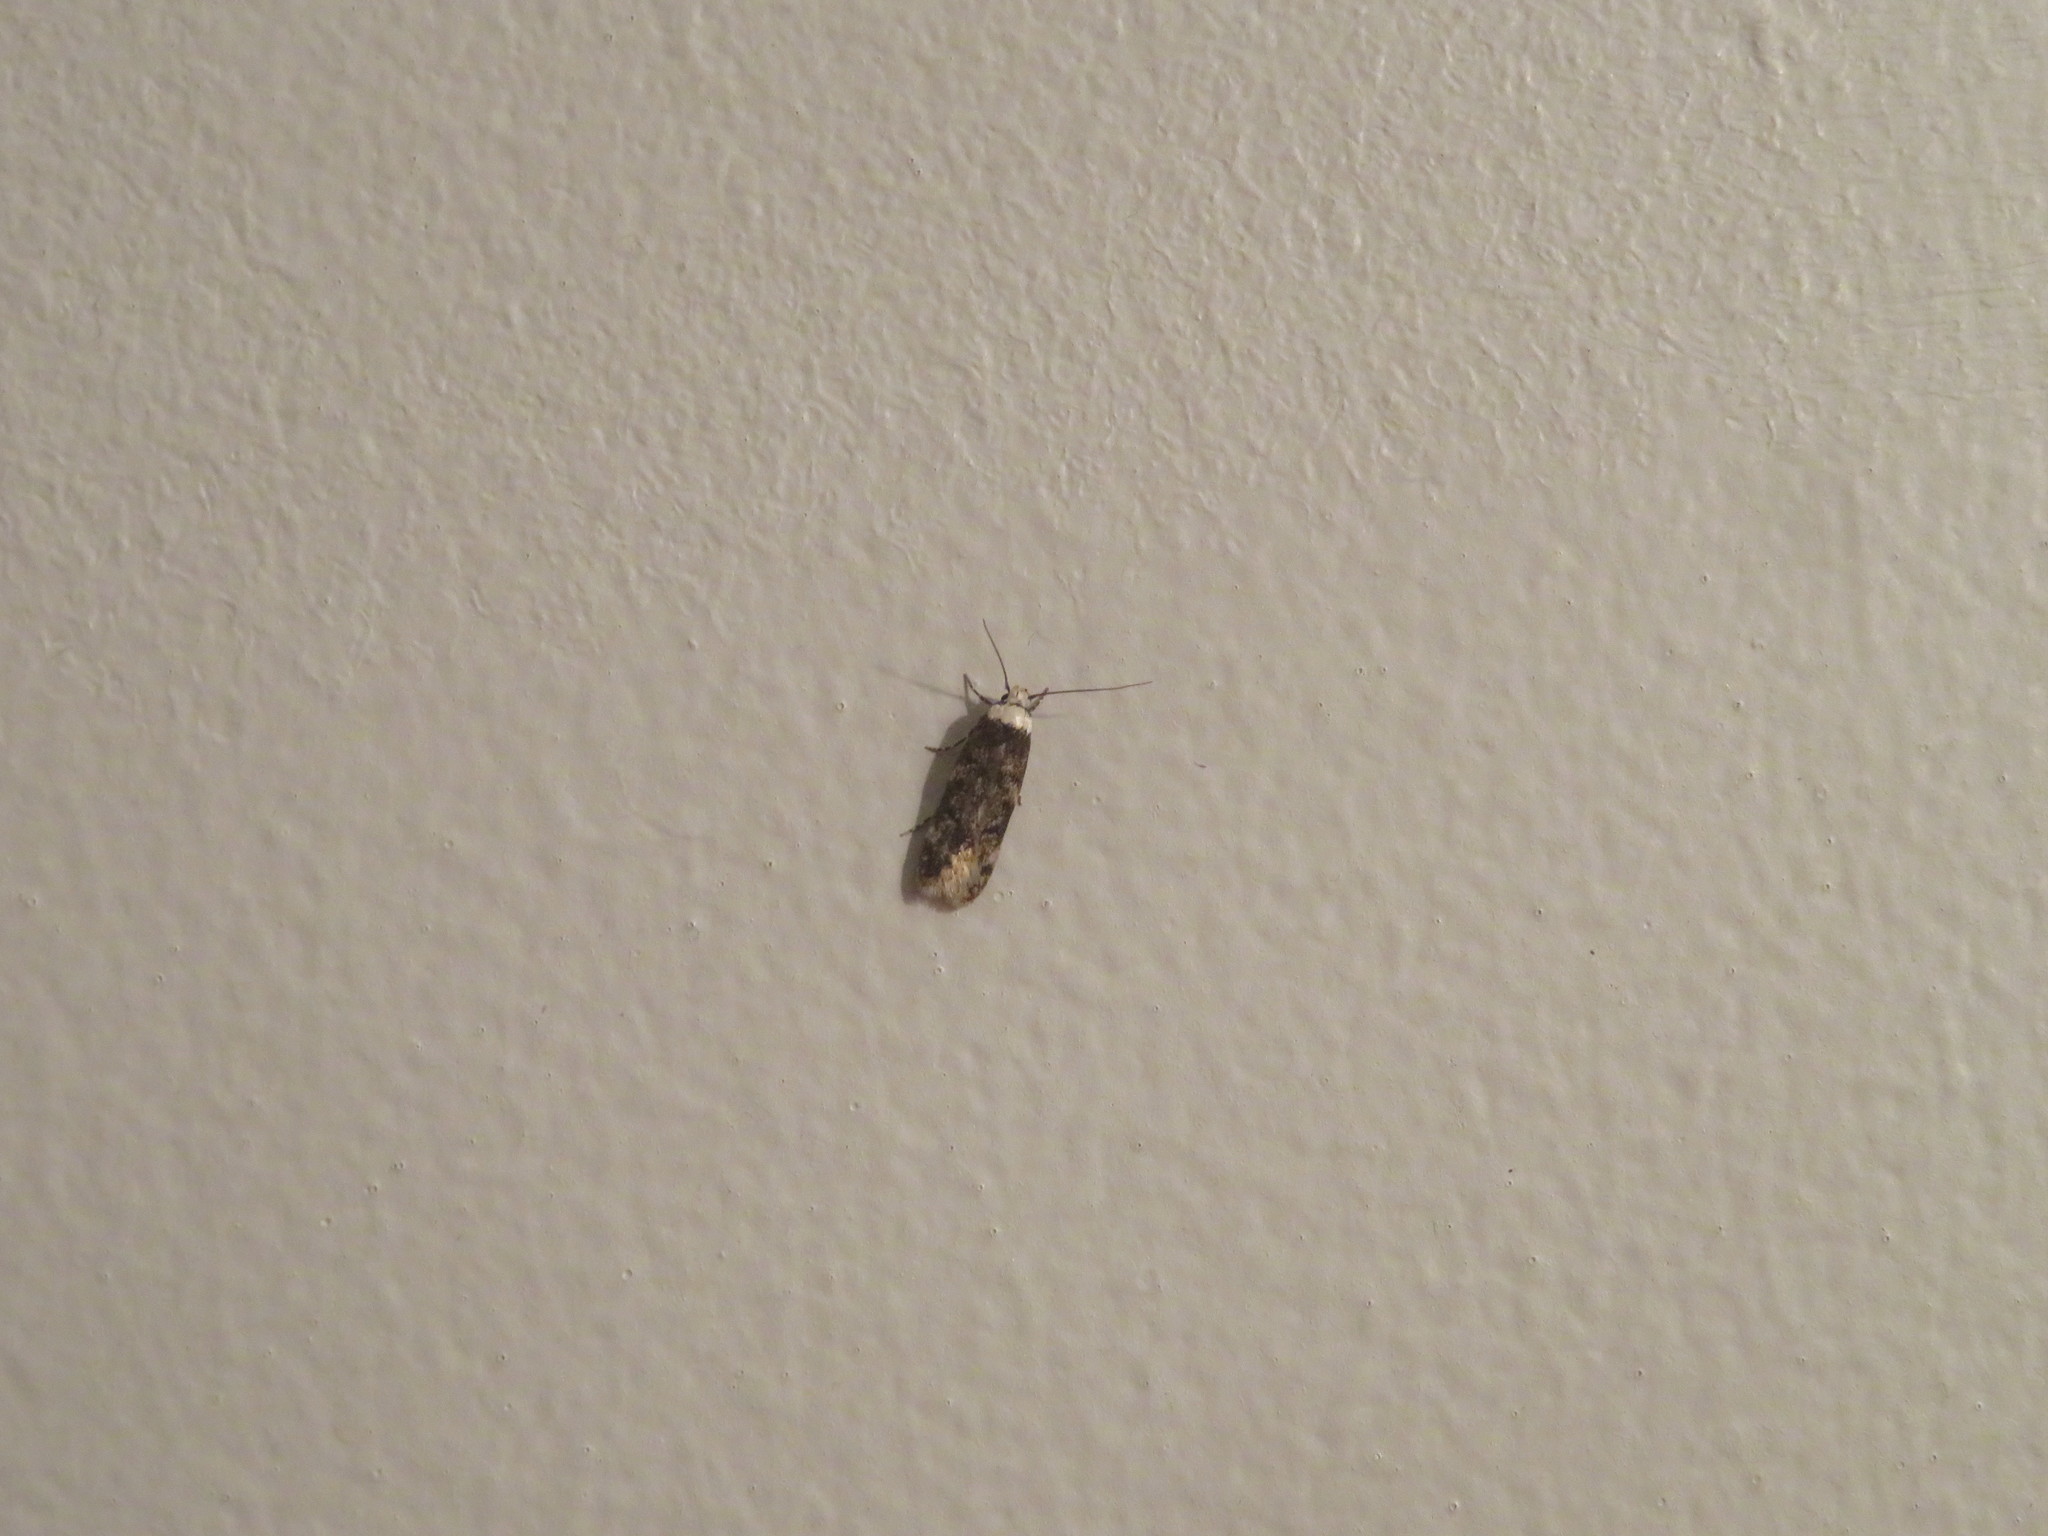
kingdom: Animalia
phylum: Arthropoda
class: Insecta
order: Lepidoptera
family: Oecophoridae
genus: Endrosis
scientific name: Endrosis sarcitrella
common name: White-shouldered house moth
